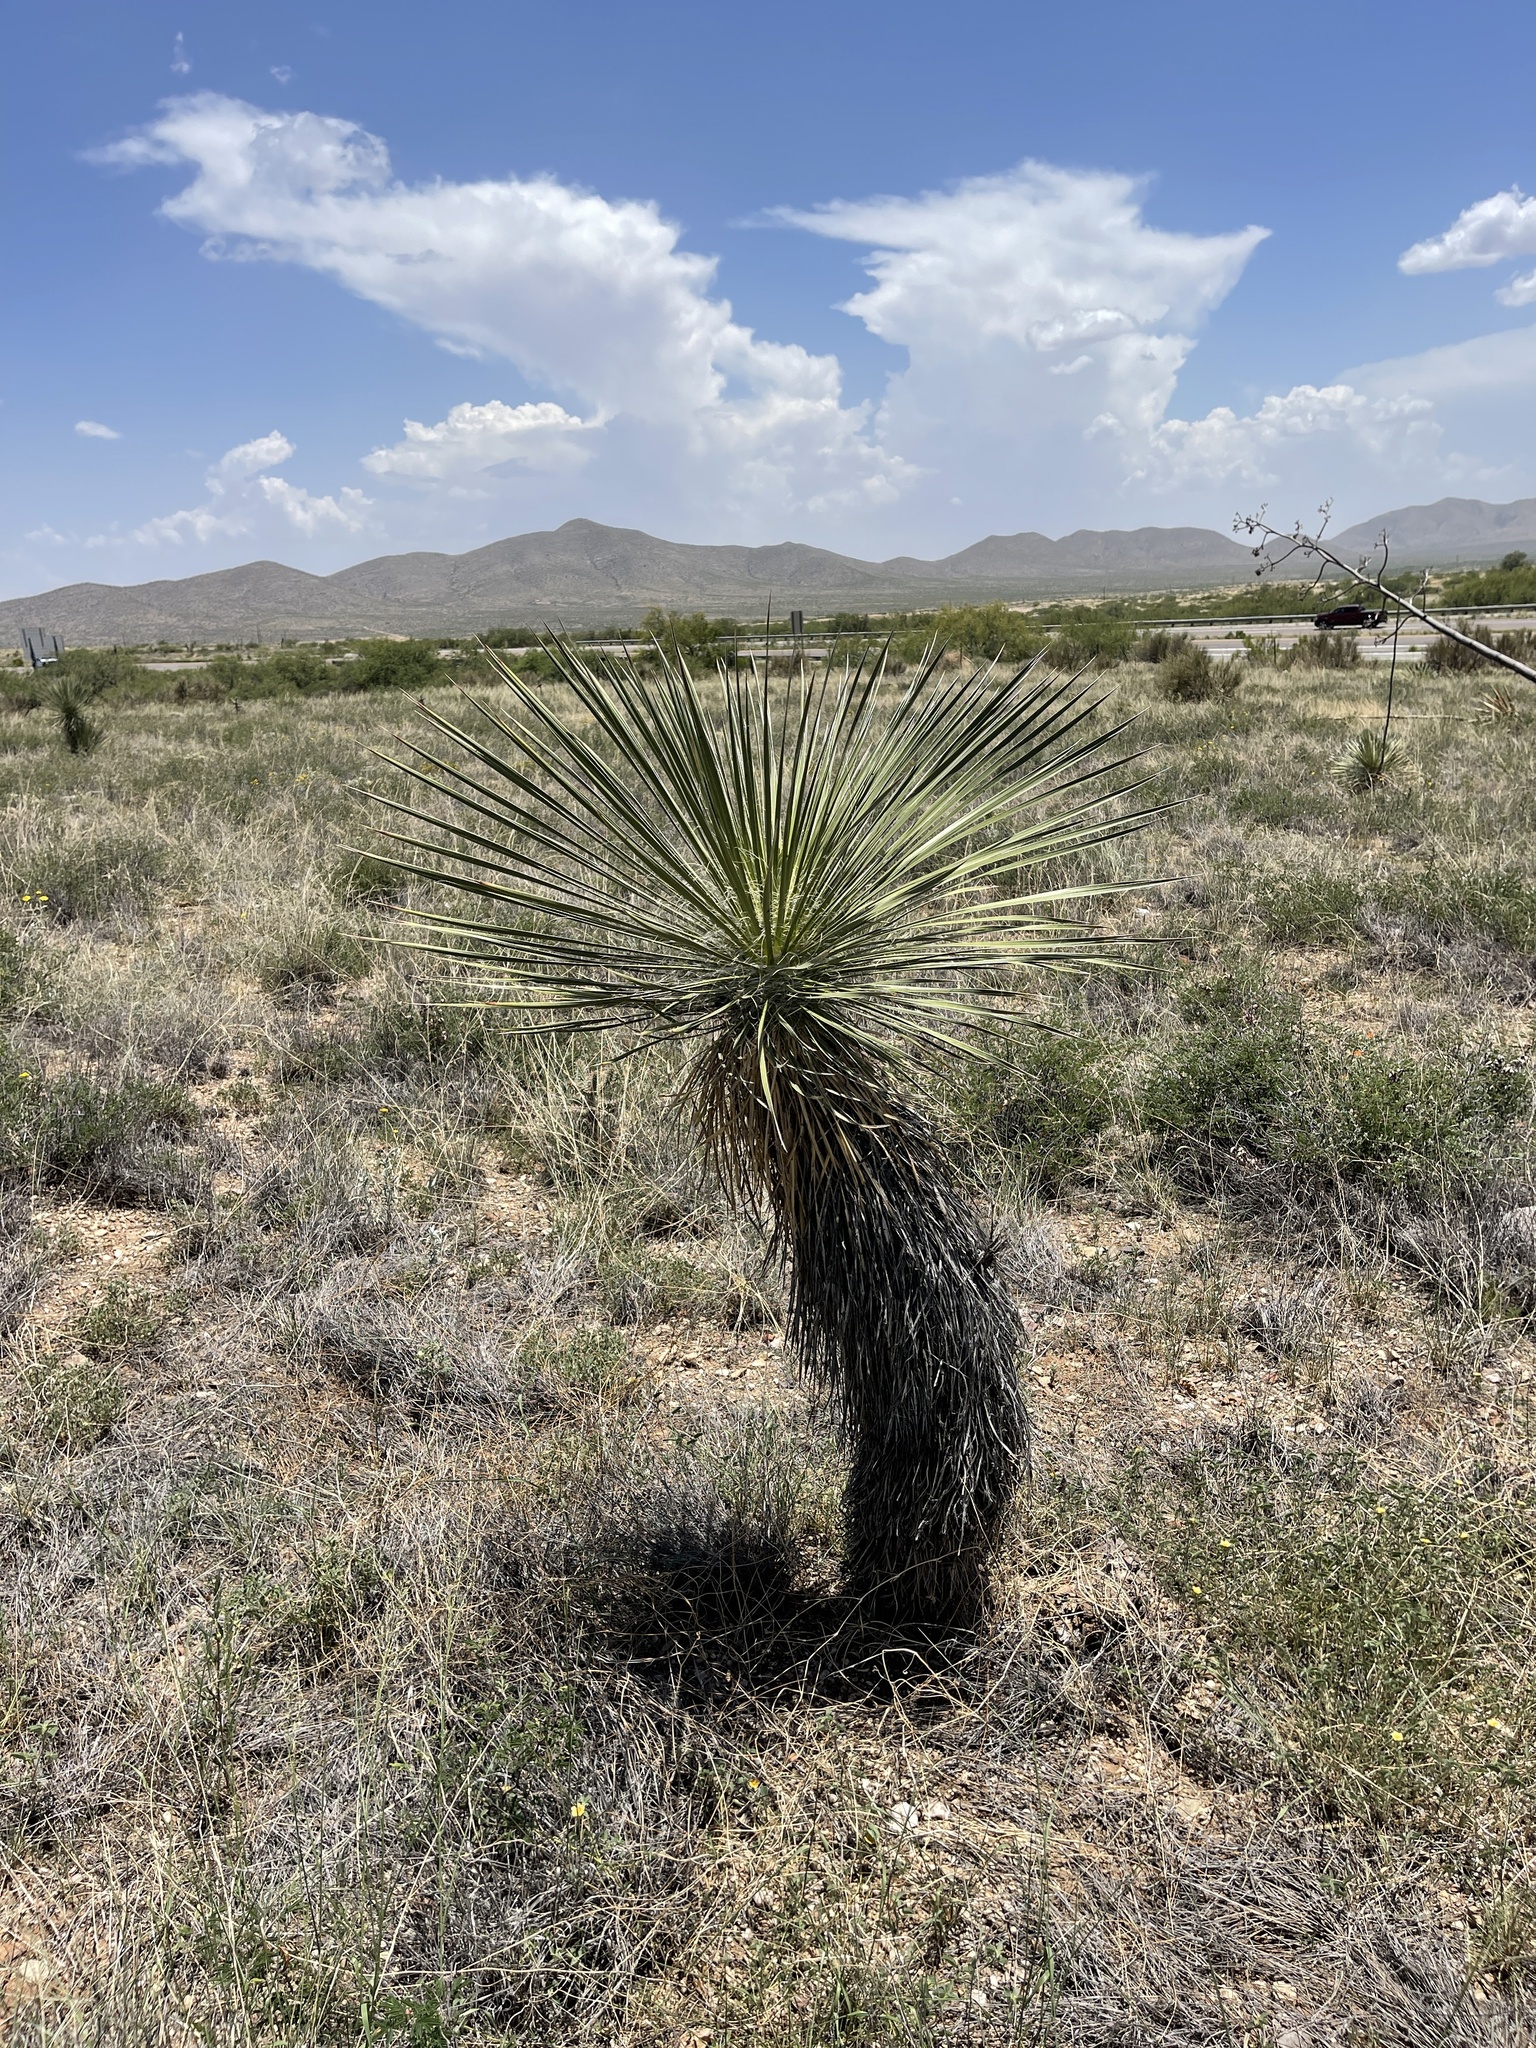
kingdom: Plantae
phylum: Tracheophyta
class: Liliopsida
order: Asparagales
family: Asparagaceae
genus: Yucca
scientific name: Yucca elata
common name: Palmella
